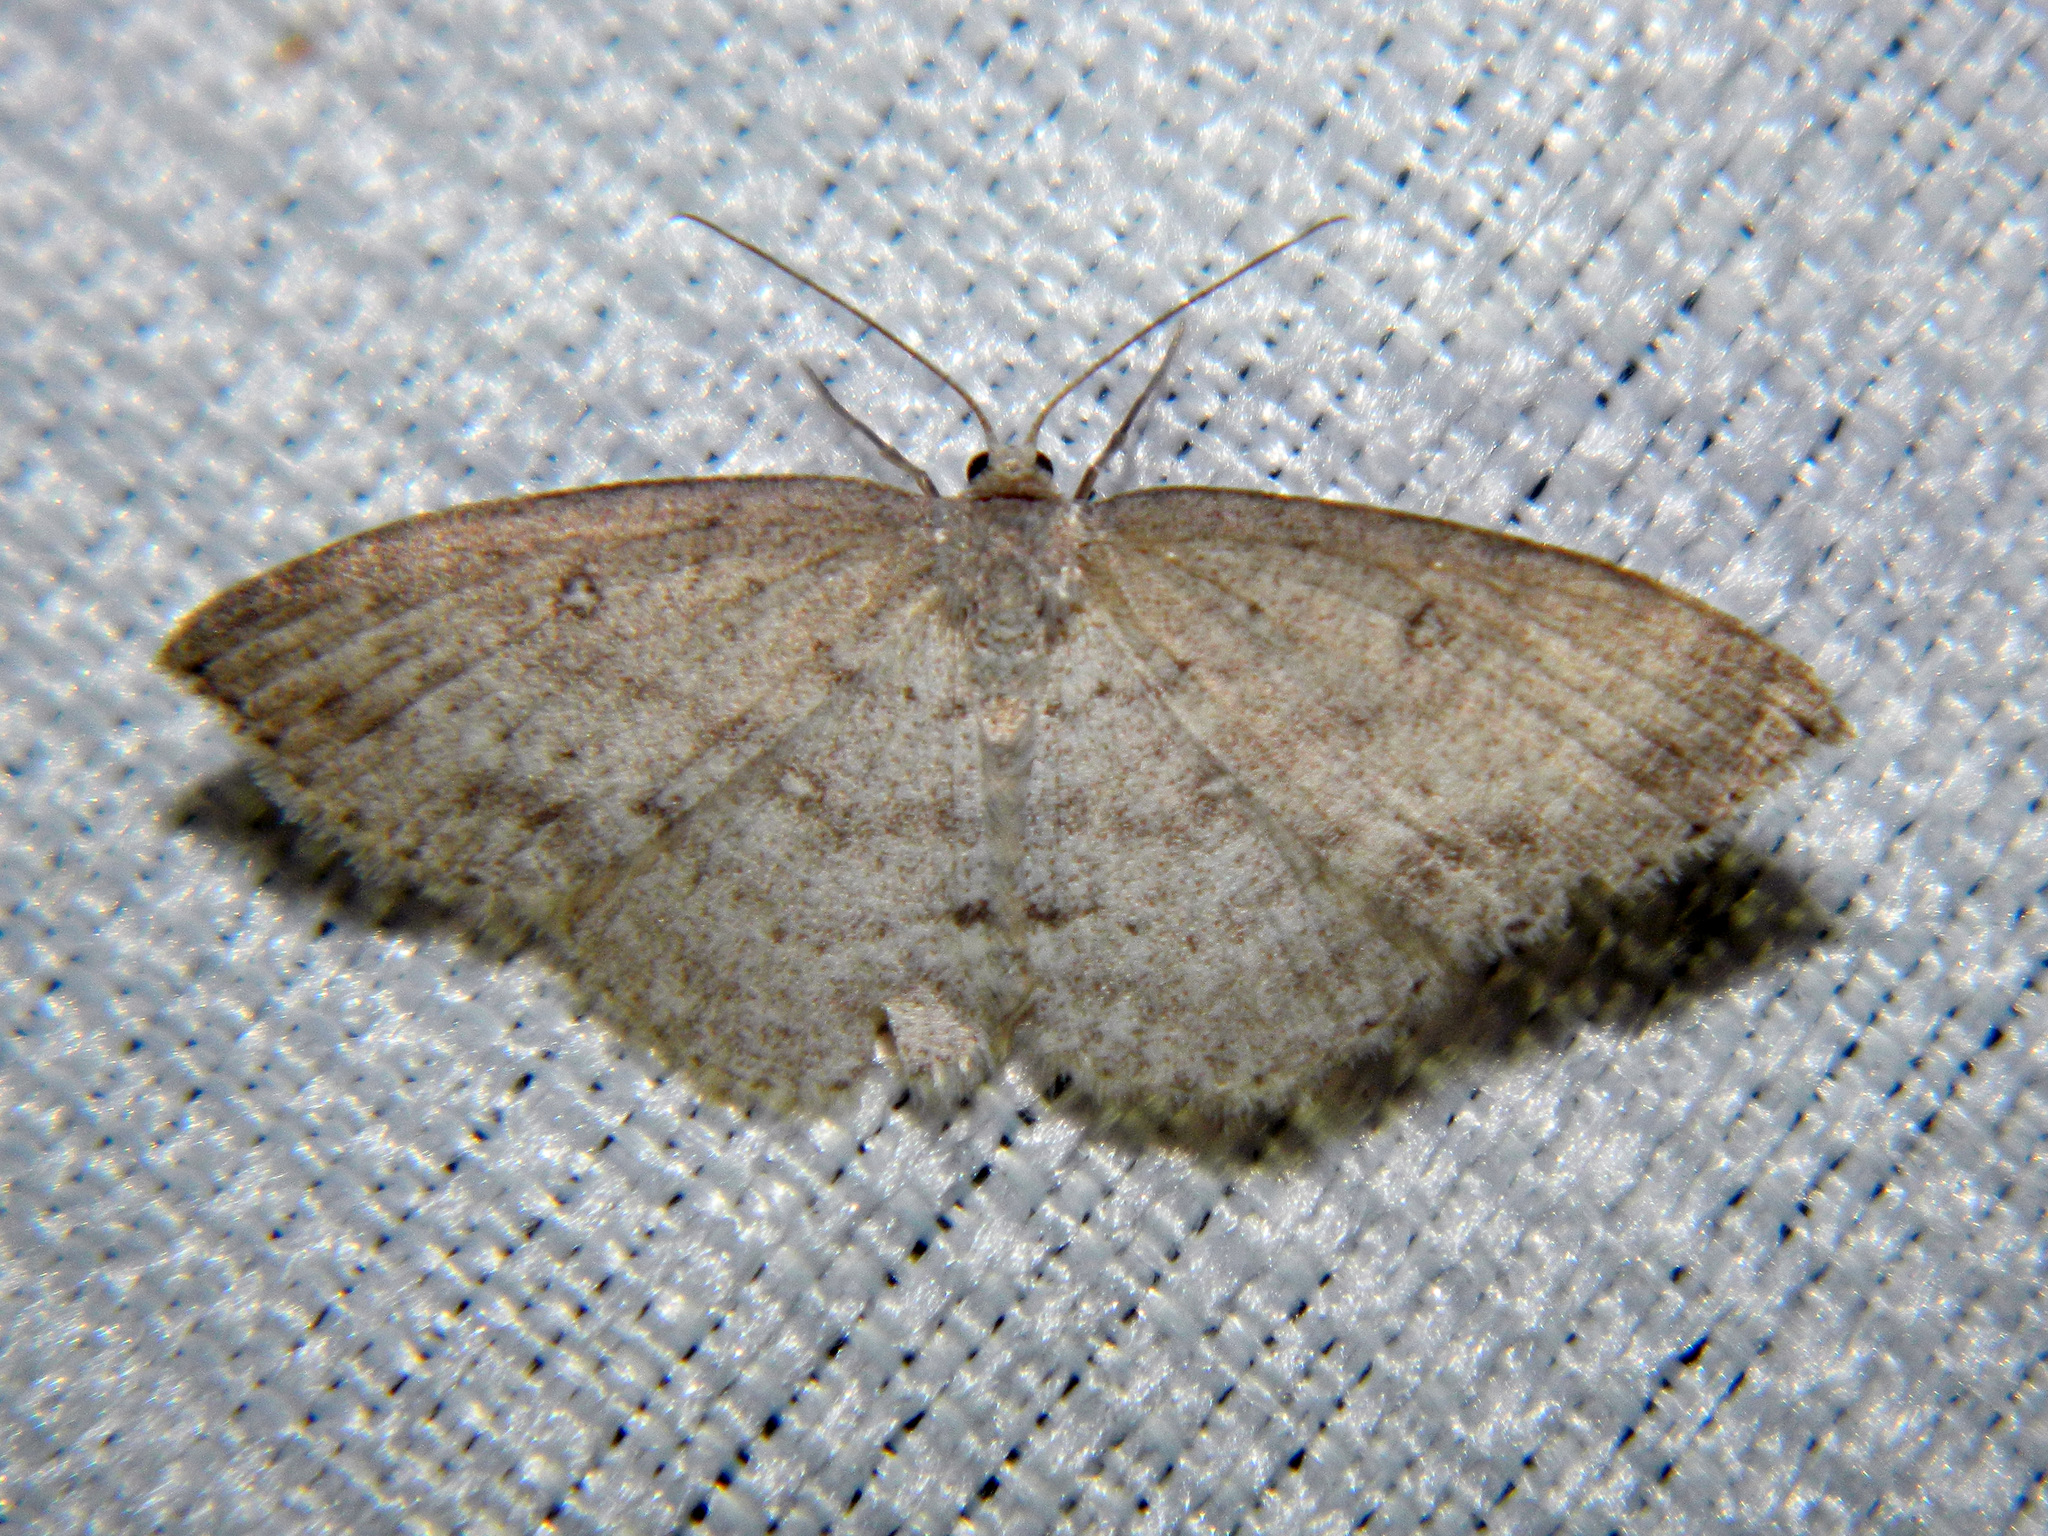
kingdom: Animalia
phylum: Arthropoda
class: Insecta
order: Lepidoptera
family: Geometridae
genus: Cyclophora
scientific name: Cyclophora pendulinaria
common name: Sweet fern geometer
